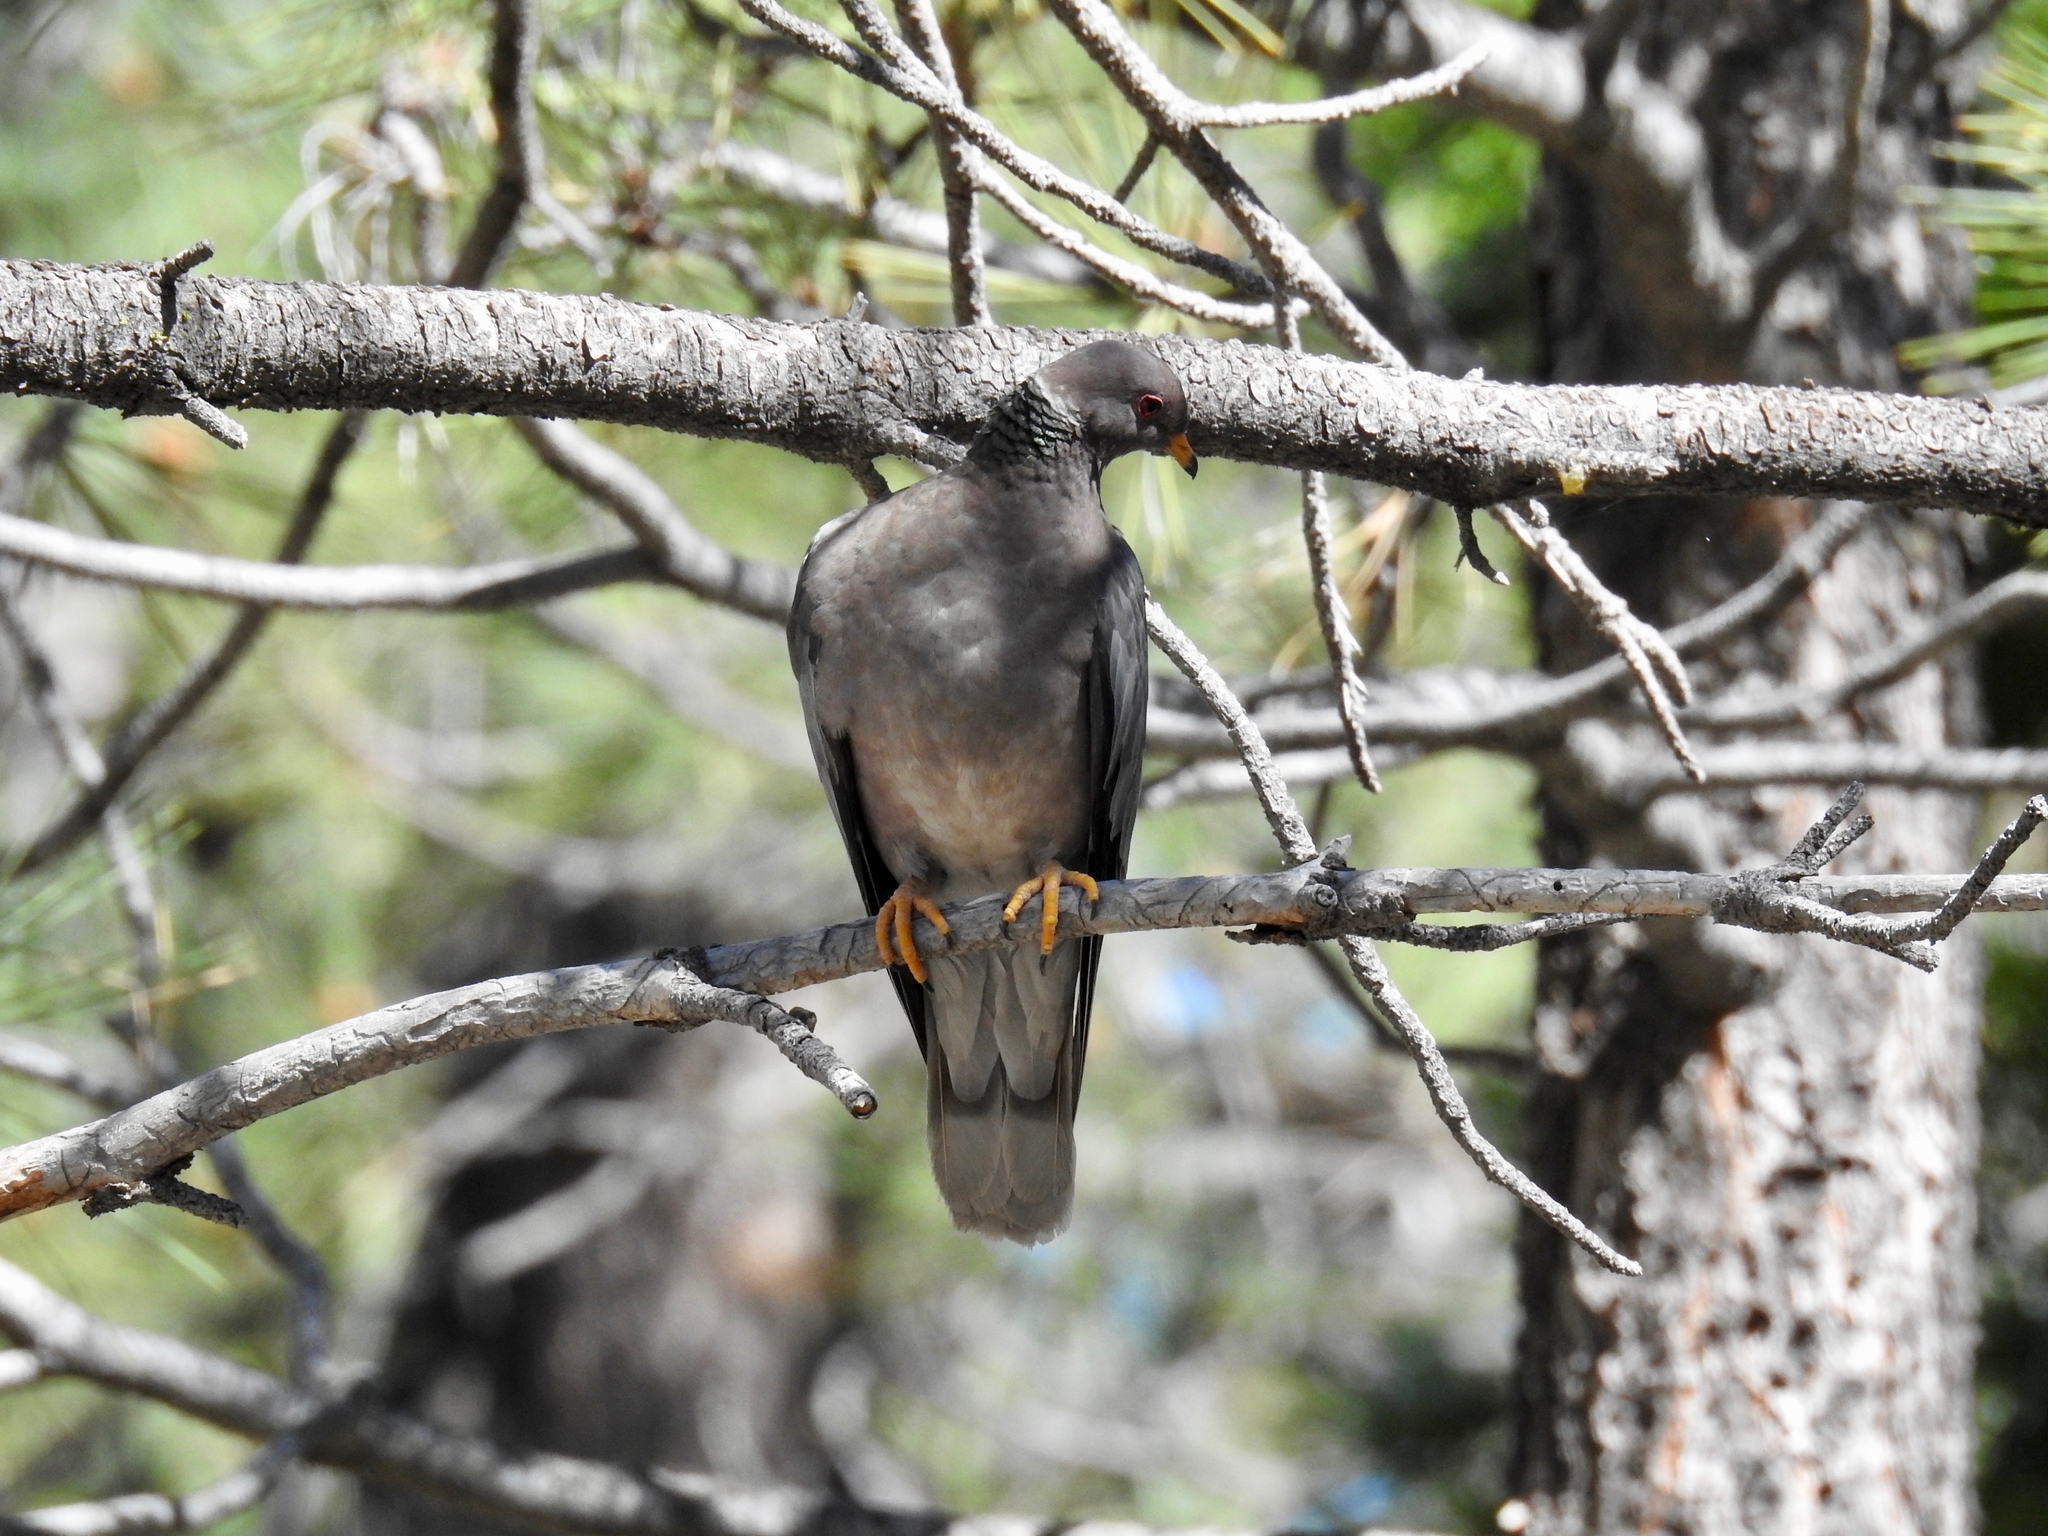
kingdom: Animalia
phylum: Chordata
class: Aves
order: Columbiformes
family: Columbidae
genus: Patagioenas
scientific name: Patagioenas fasciata
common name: Band-tailed pigeon
